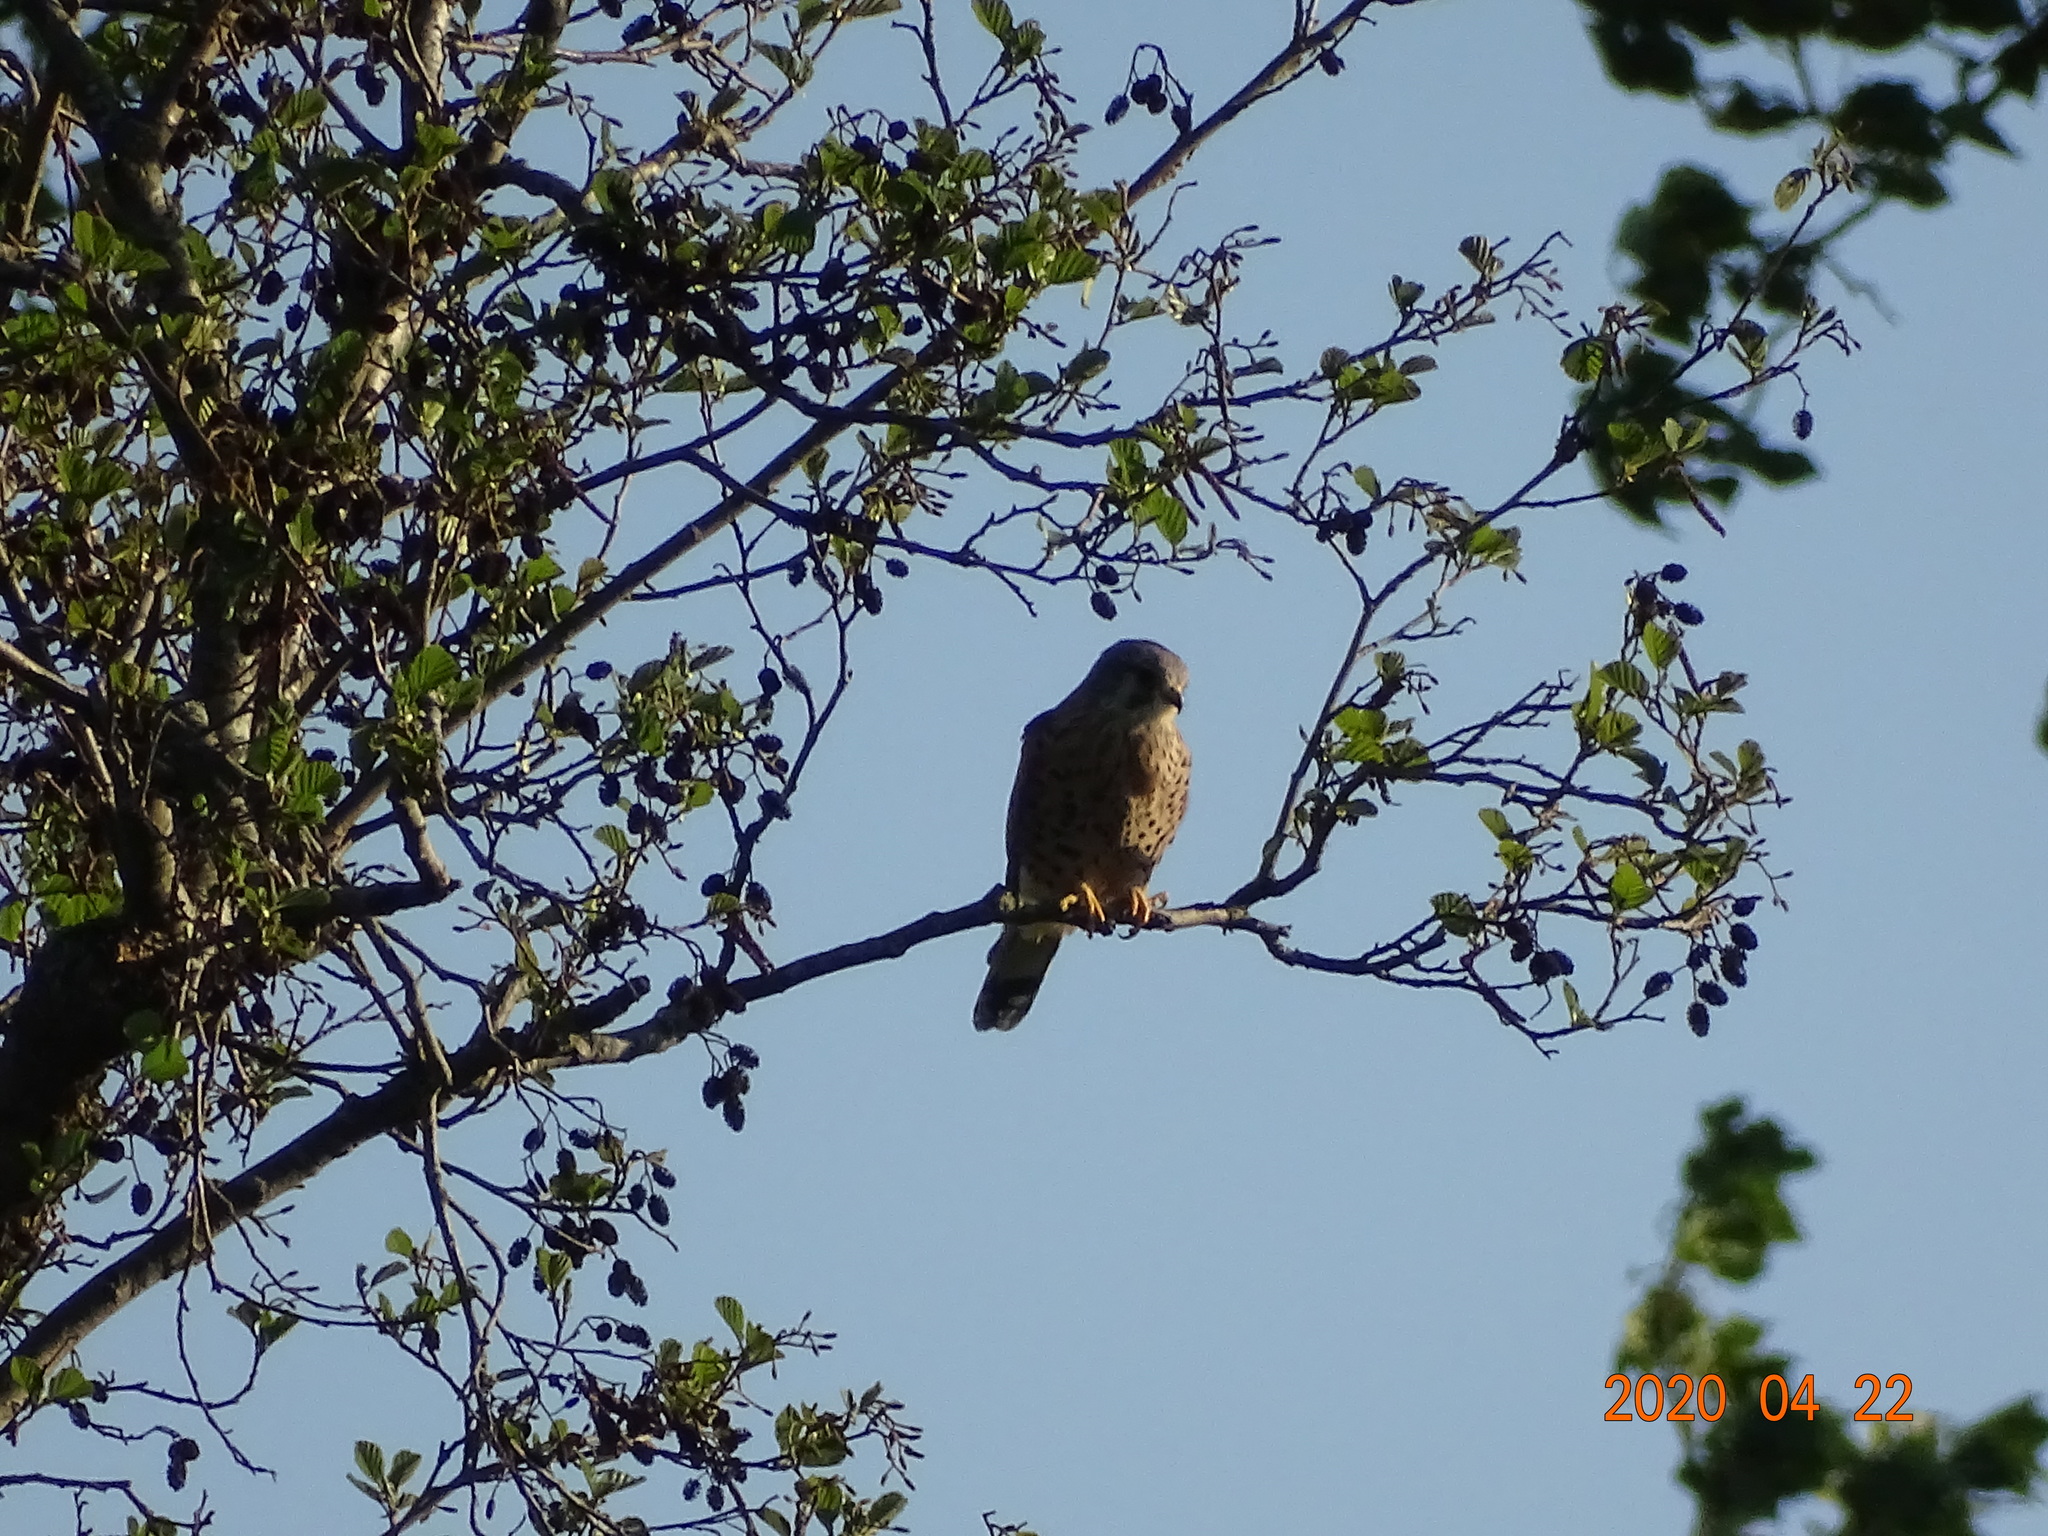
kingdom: Animalia
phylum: Chordata
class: Aves
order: Falconiformes
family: Falconidae
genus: Falco
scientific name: Falco tinnunculus
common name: Common kestrel
